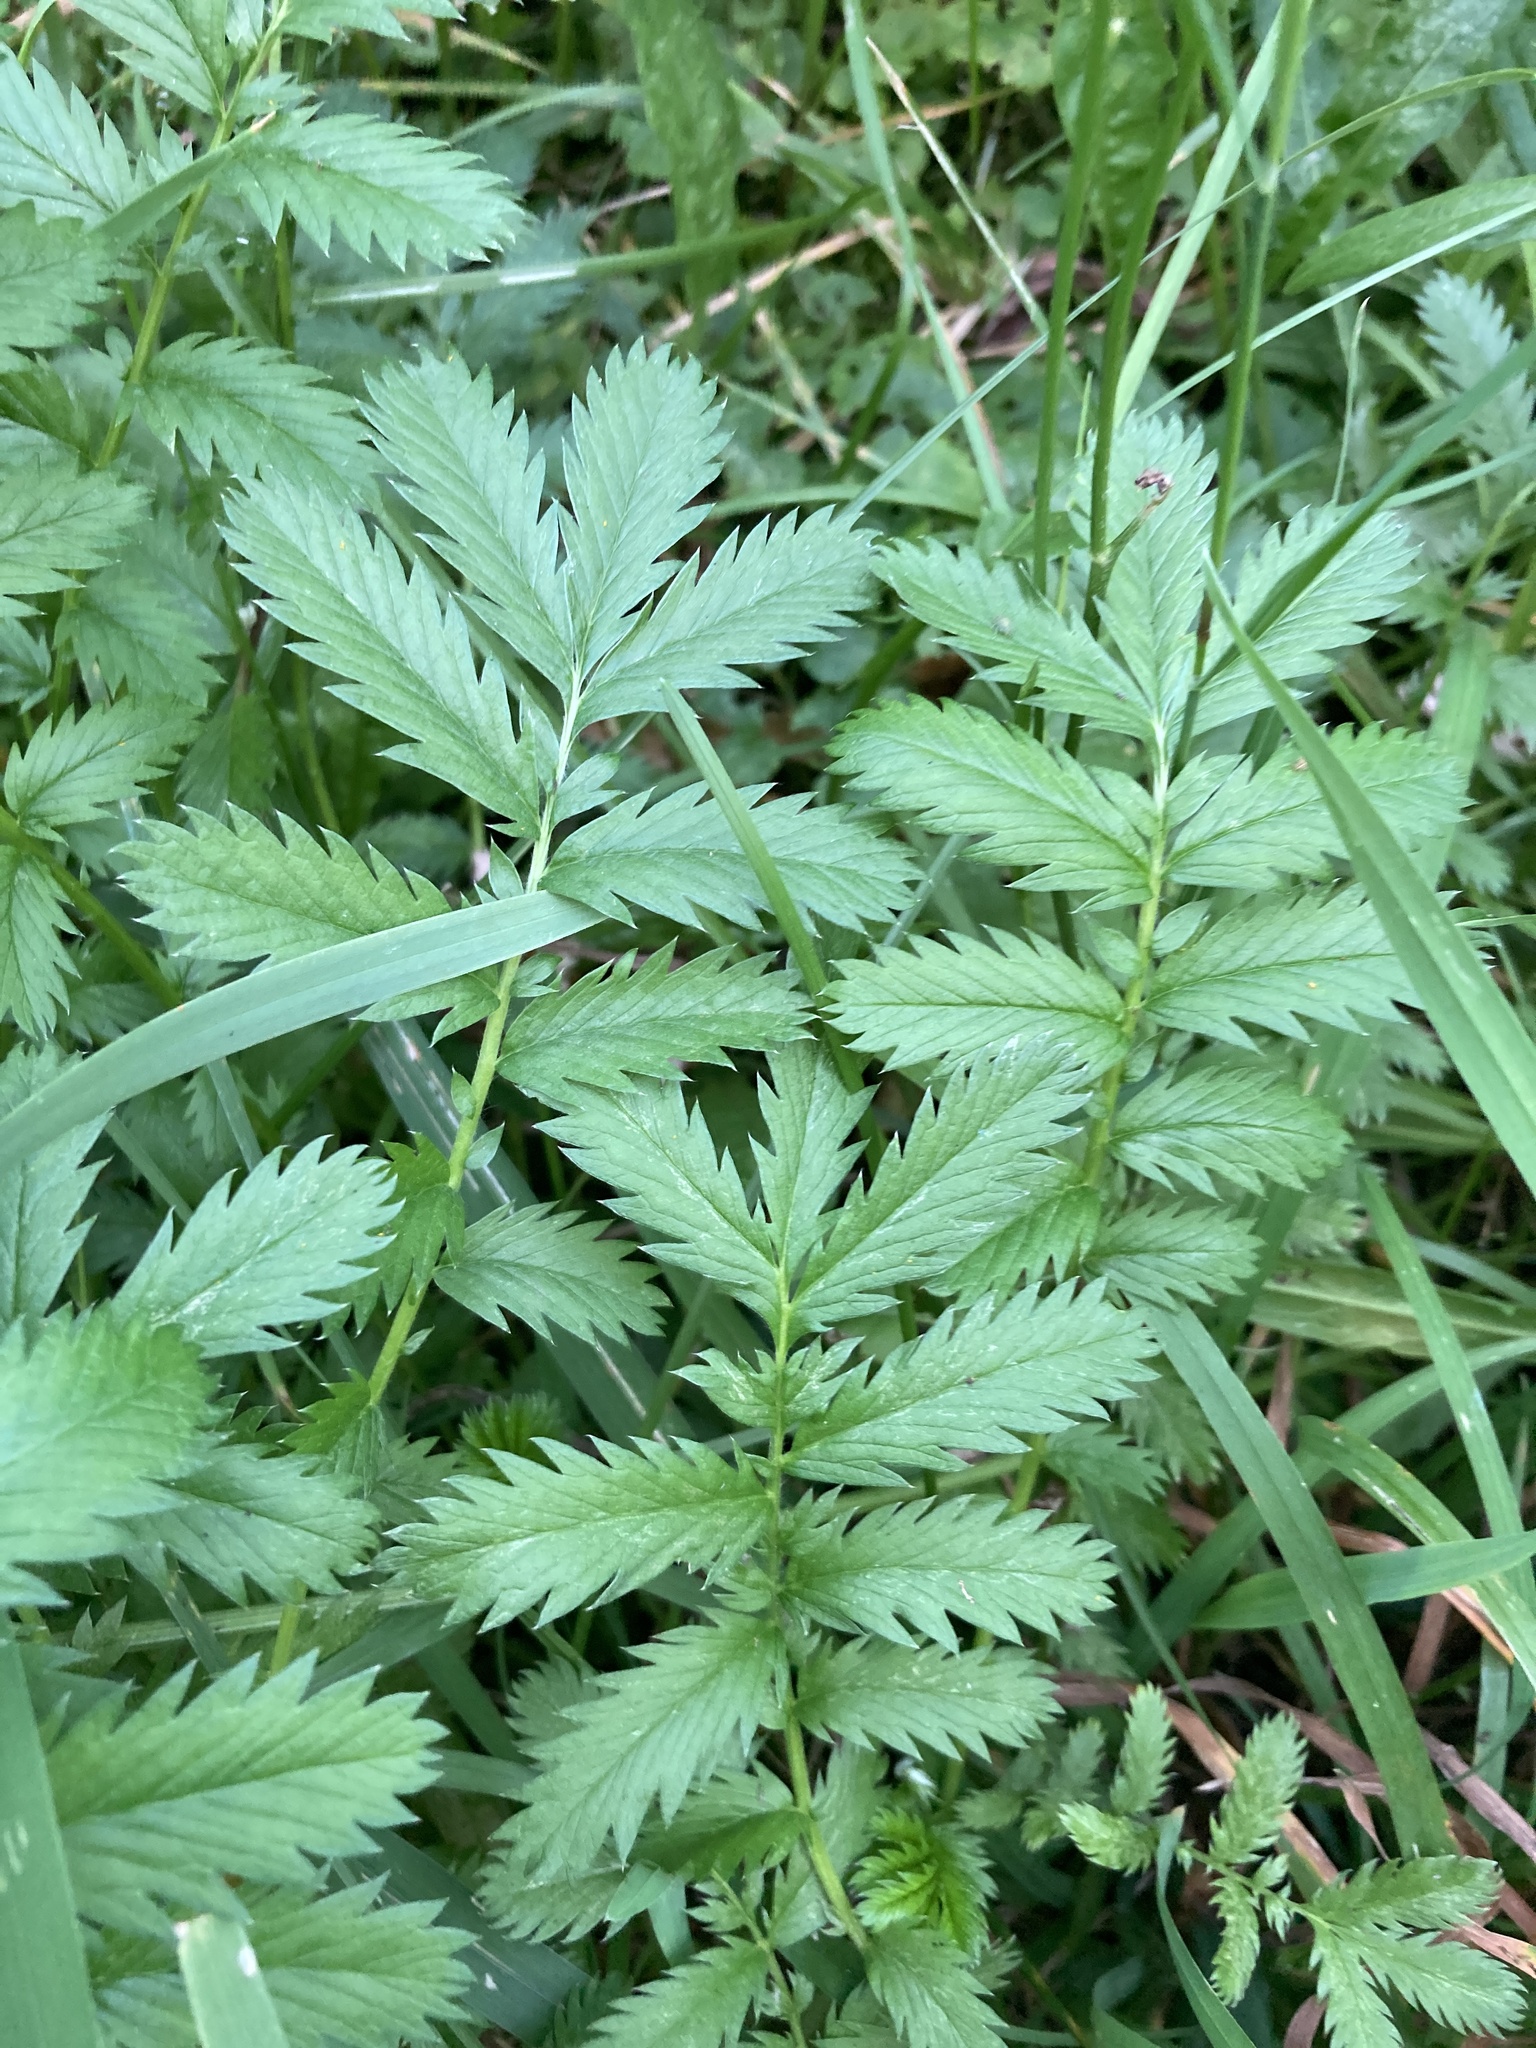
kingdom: Plantae
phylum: Tracheophyta
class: Magnoliopsida
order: Rosales
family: Rosaceae
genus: Argentina
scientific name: Argentina anserina
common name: Common silverweed
